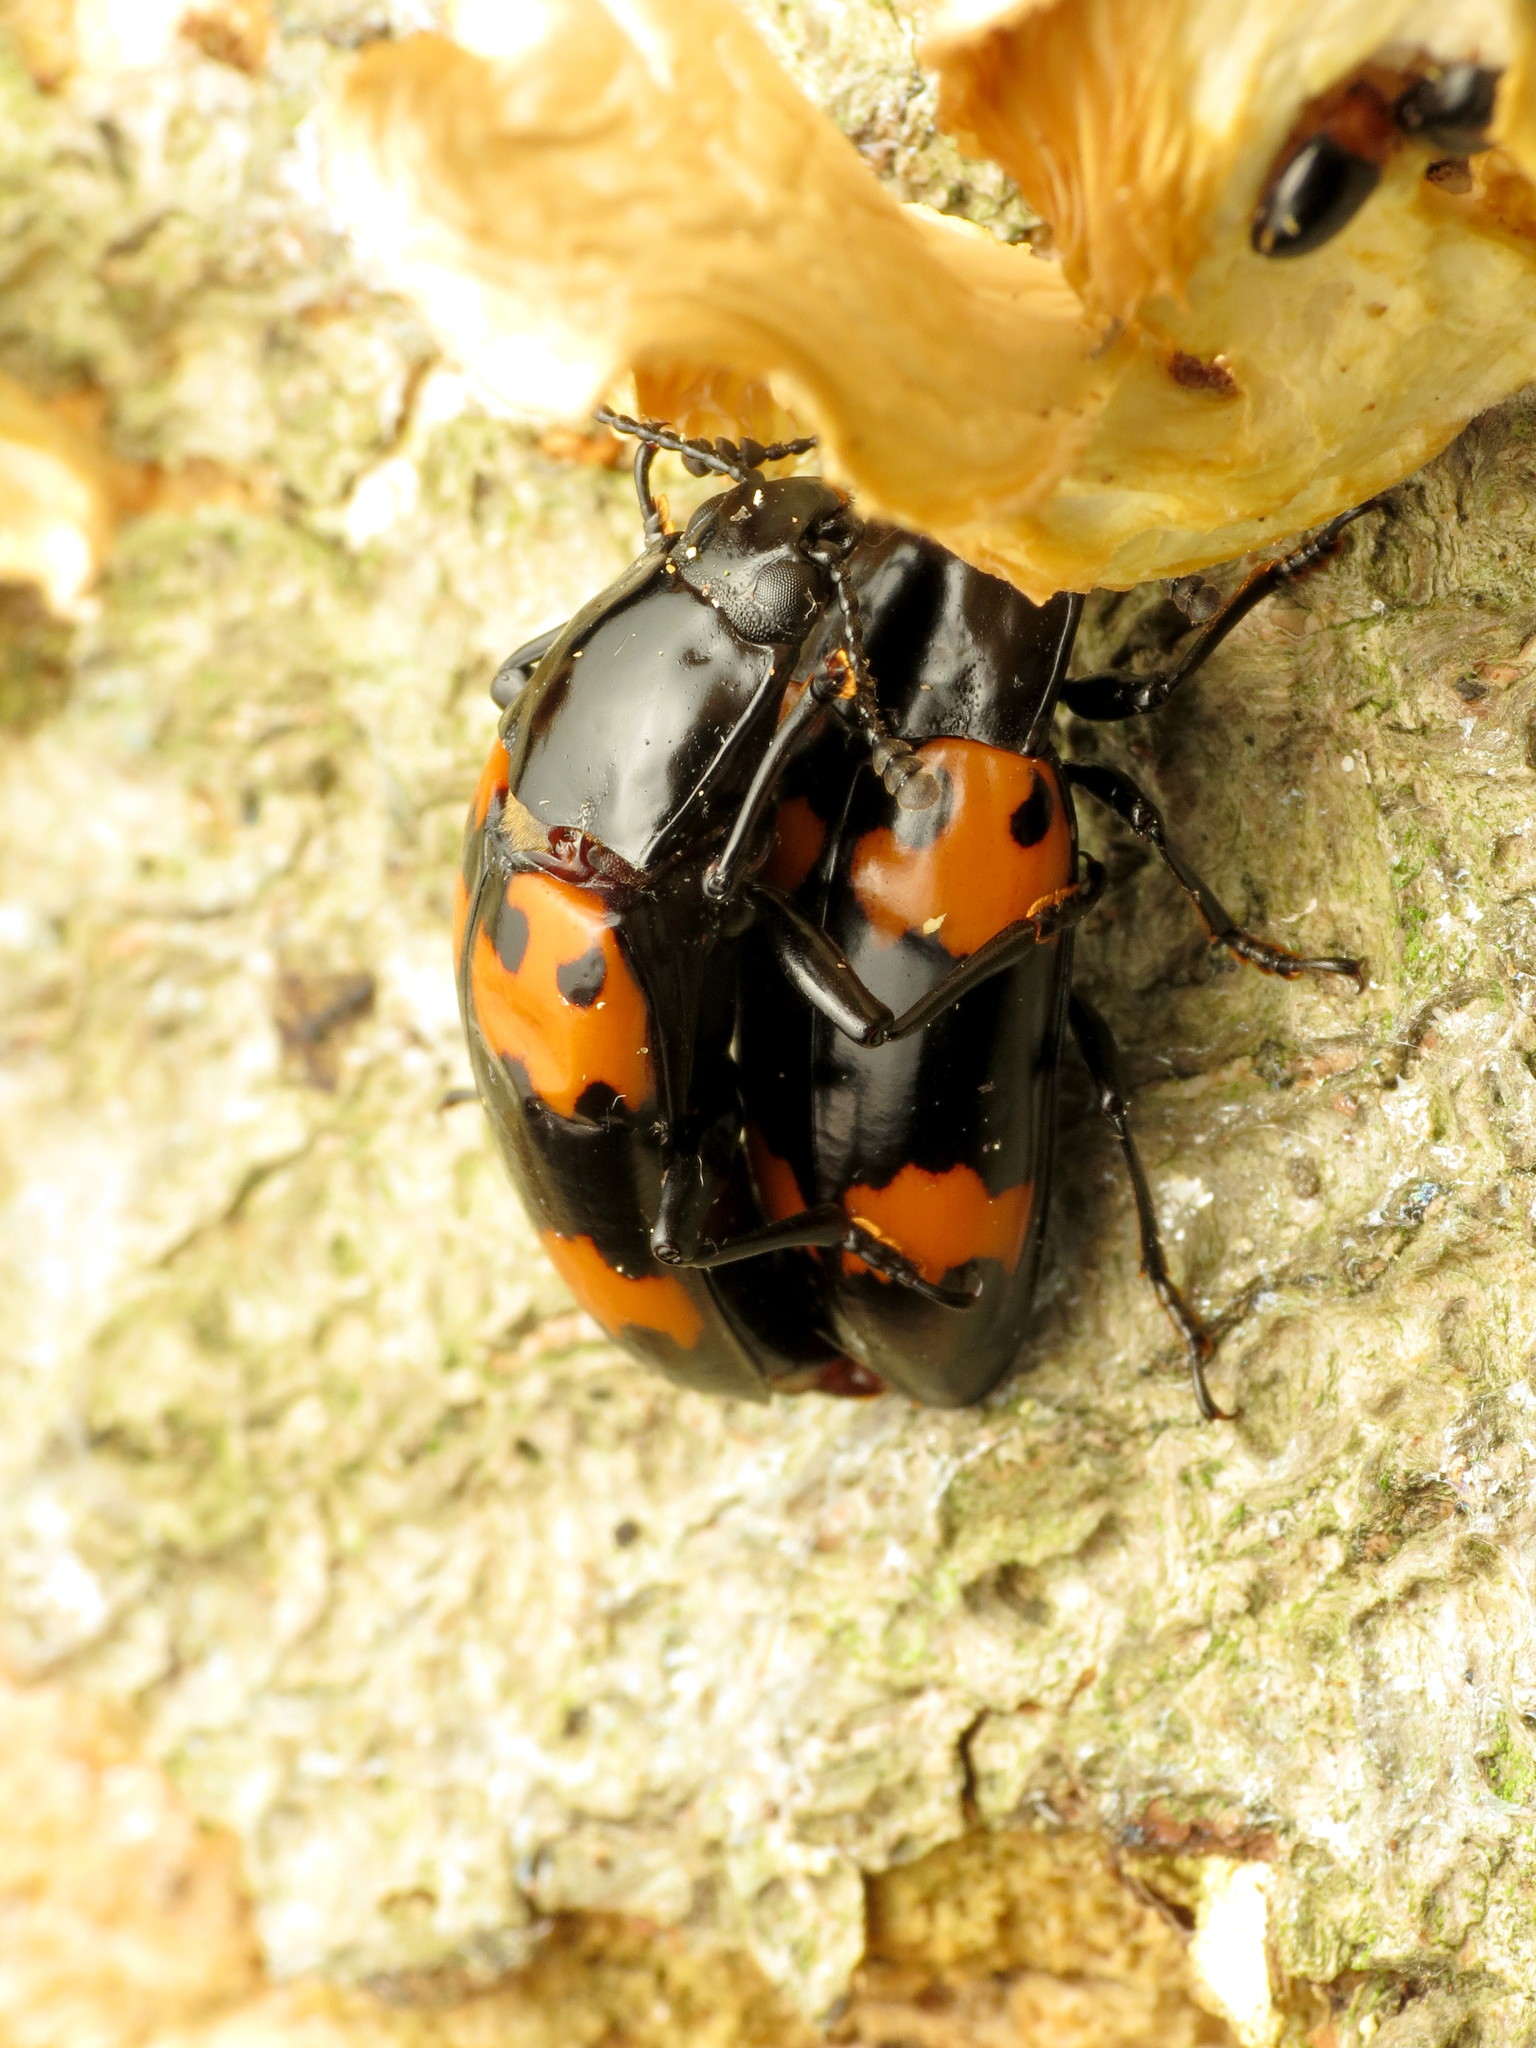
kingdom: Animalia
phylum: Arthropoda
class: Insecta
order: Coleoptera
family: Erotylidae
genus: Megalodacne
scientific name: Megalodacne heros
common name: Pleasing fungus beetle
